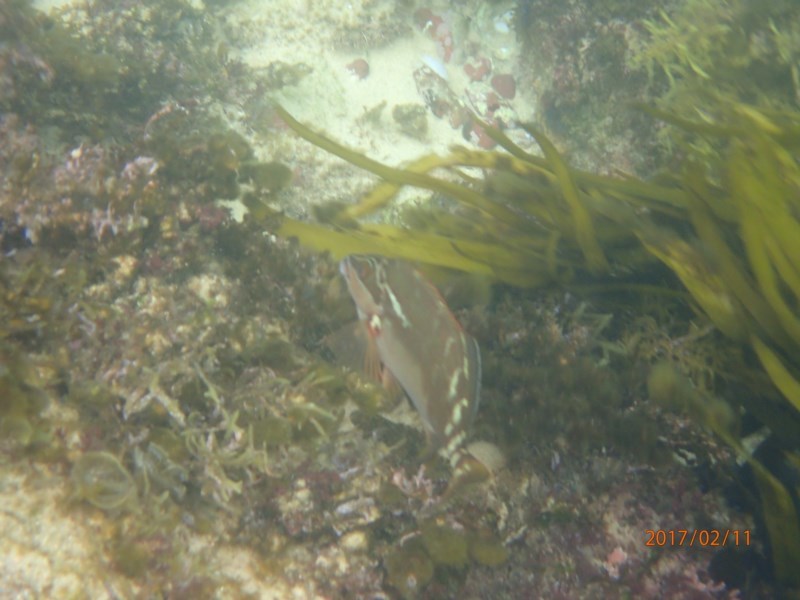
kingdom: Animalia
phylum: Chordata
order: Perciformes
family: Latridae
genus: Morwong
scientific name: Morwong fuscus
